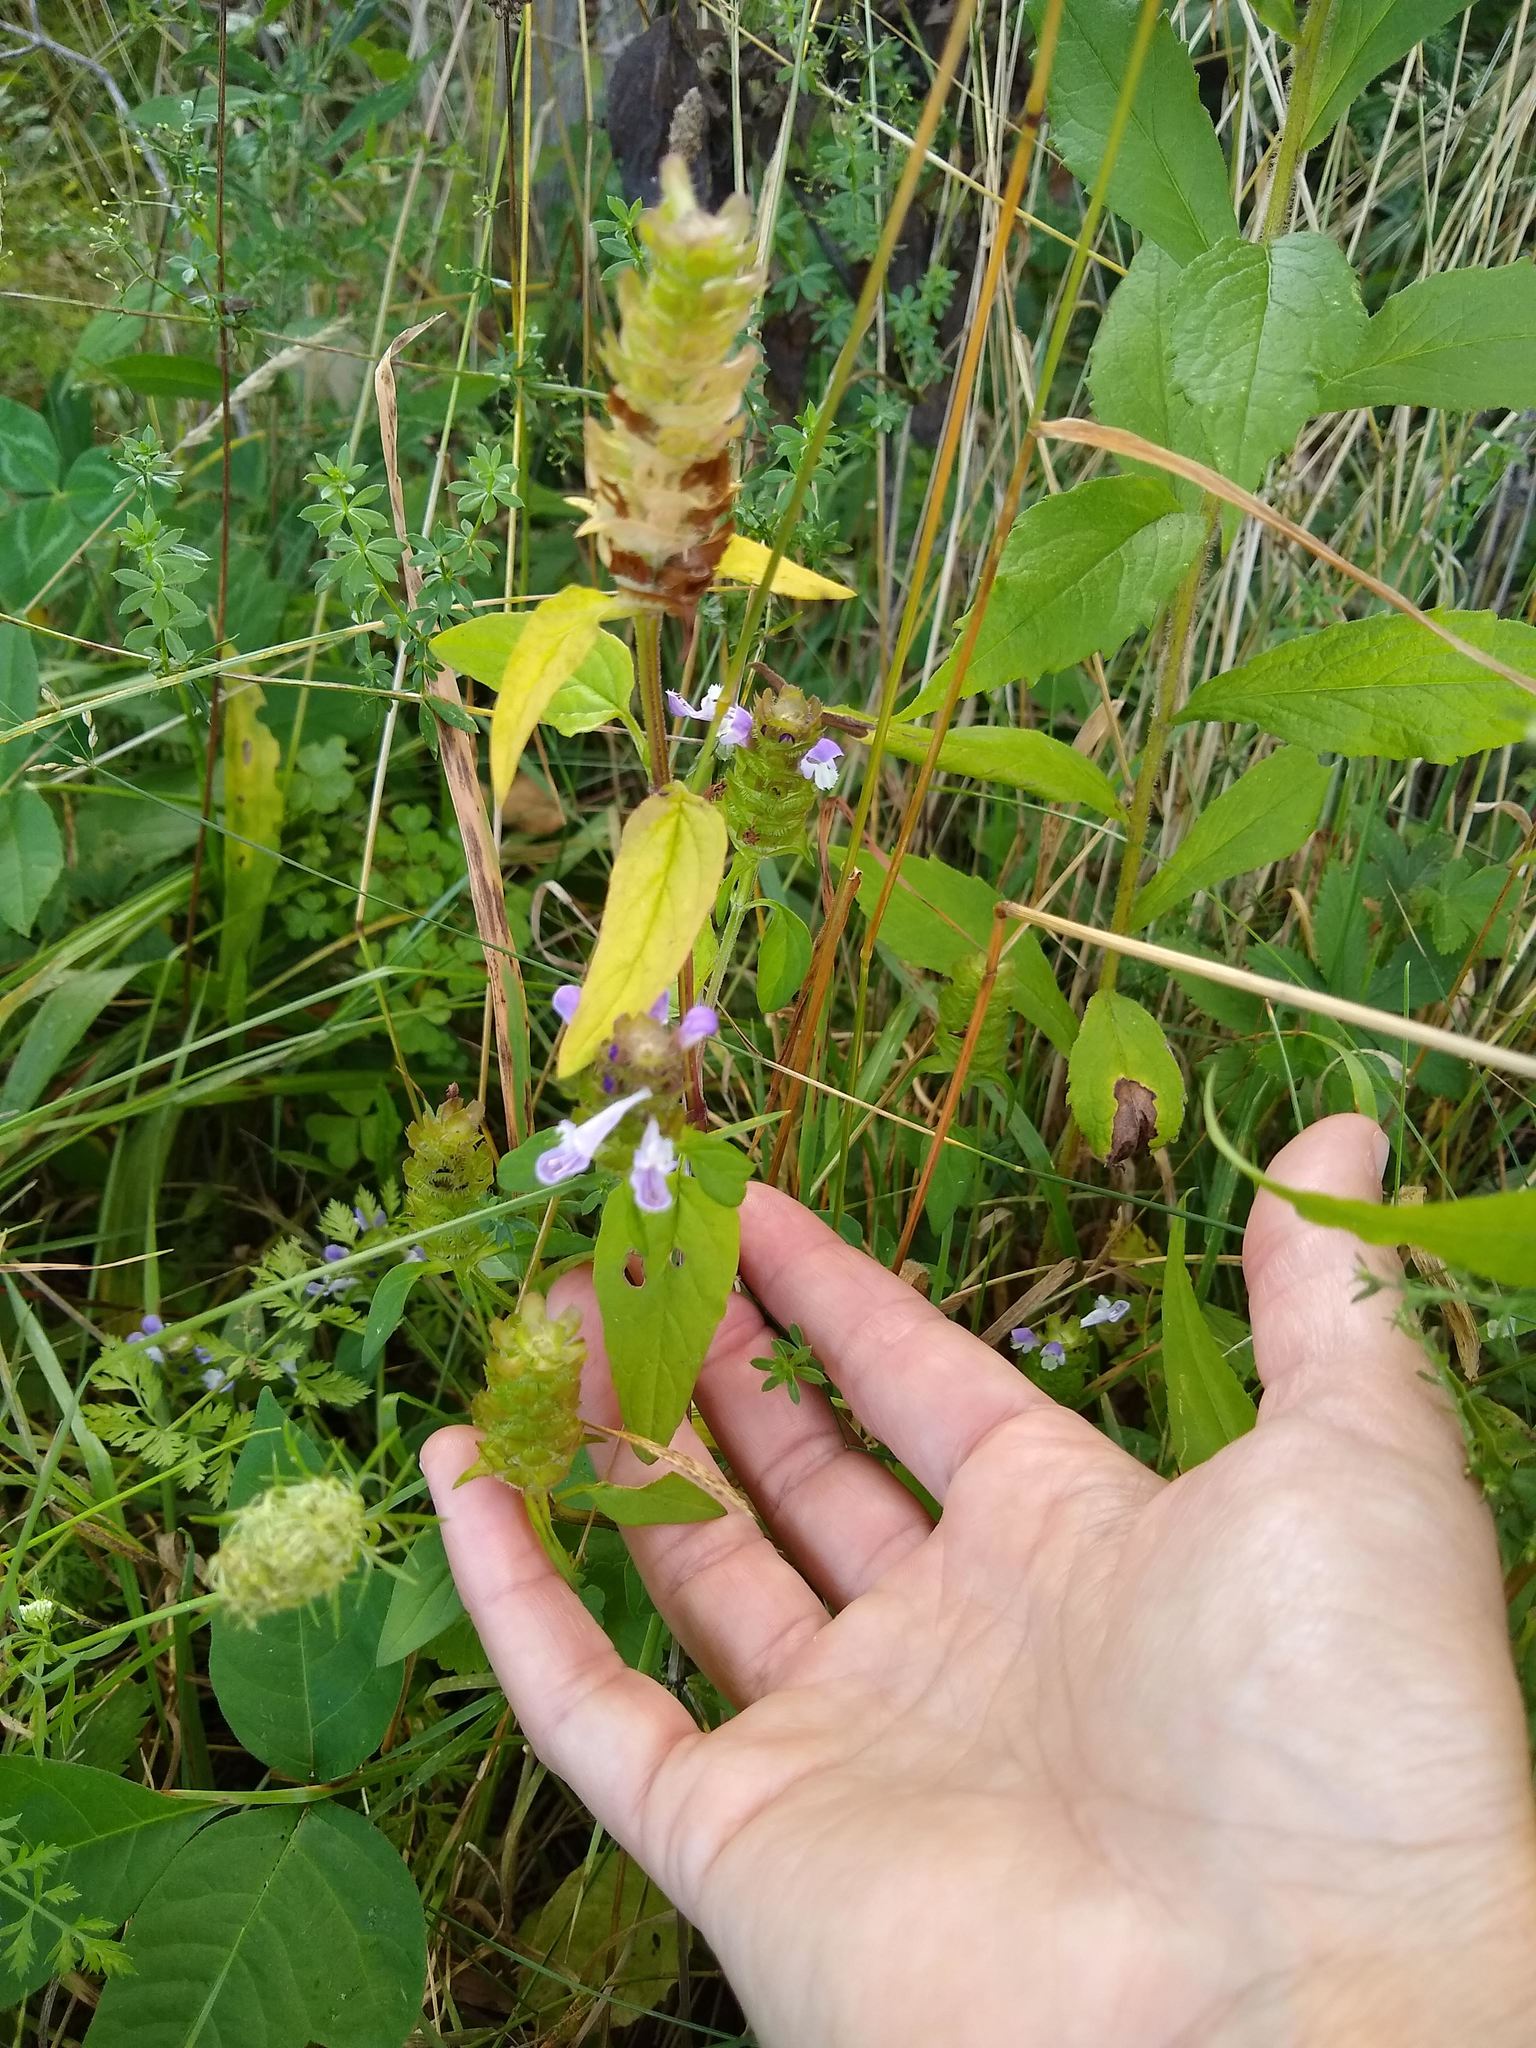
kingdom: Plantae
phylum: Tracheophyta
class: Magnoliopsida
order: Lamiales
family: Lamiaceae
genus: Prunella
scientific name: Prunella vulgaris
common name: Heal-all
